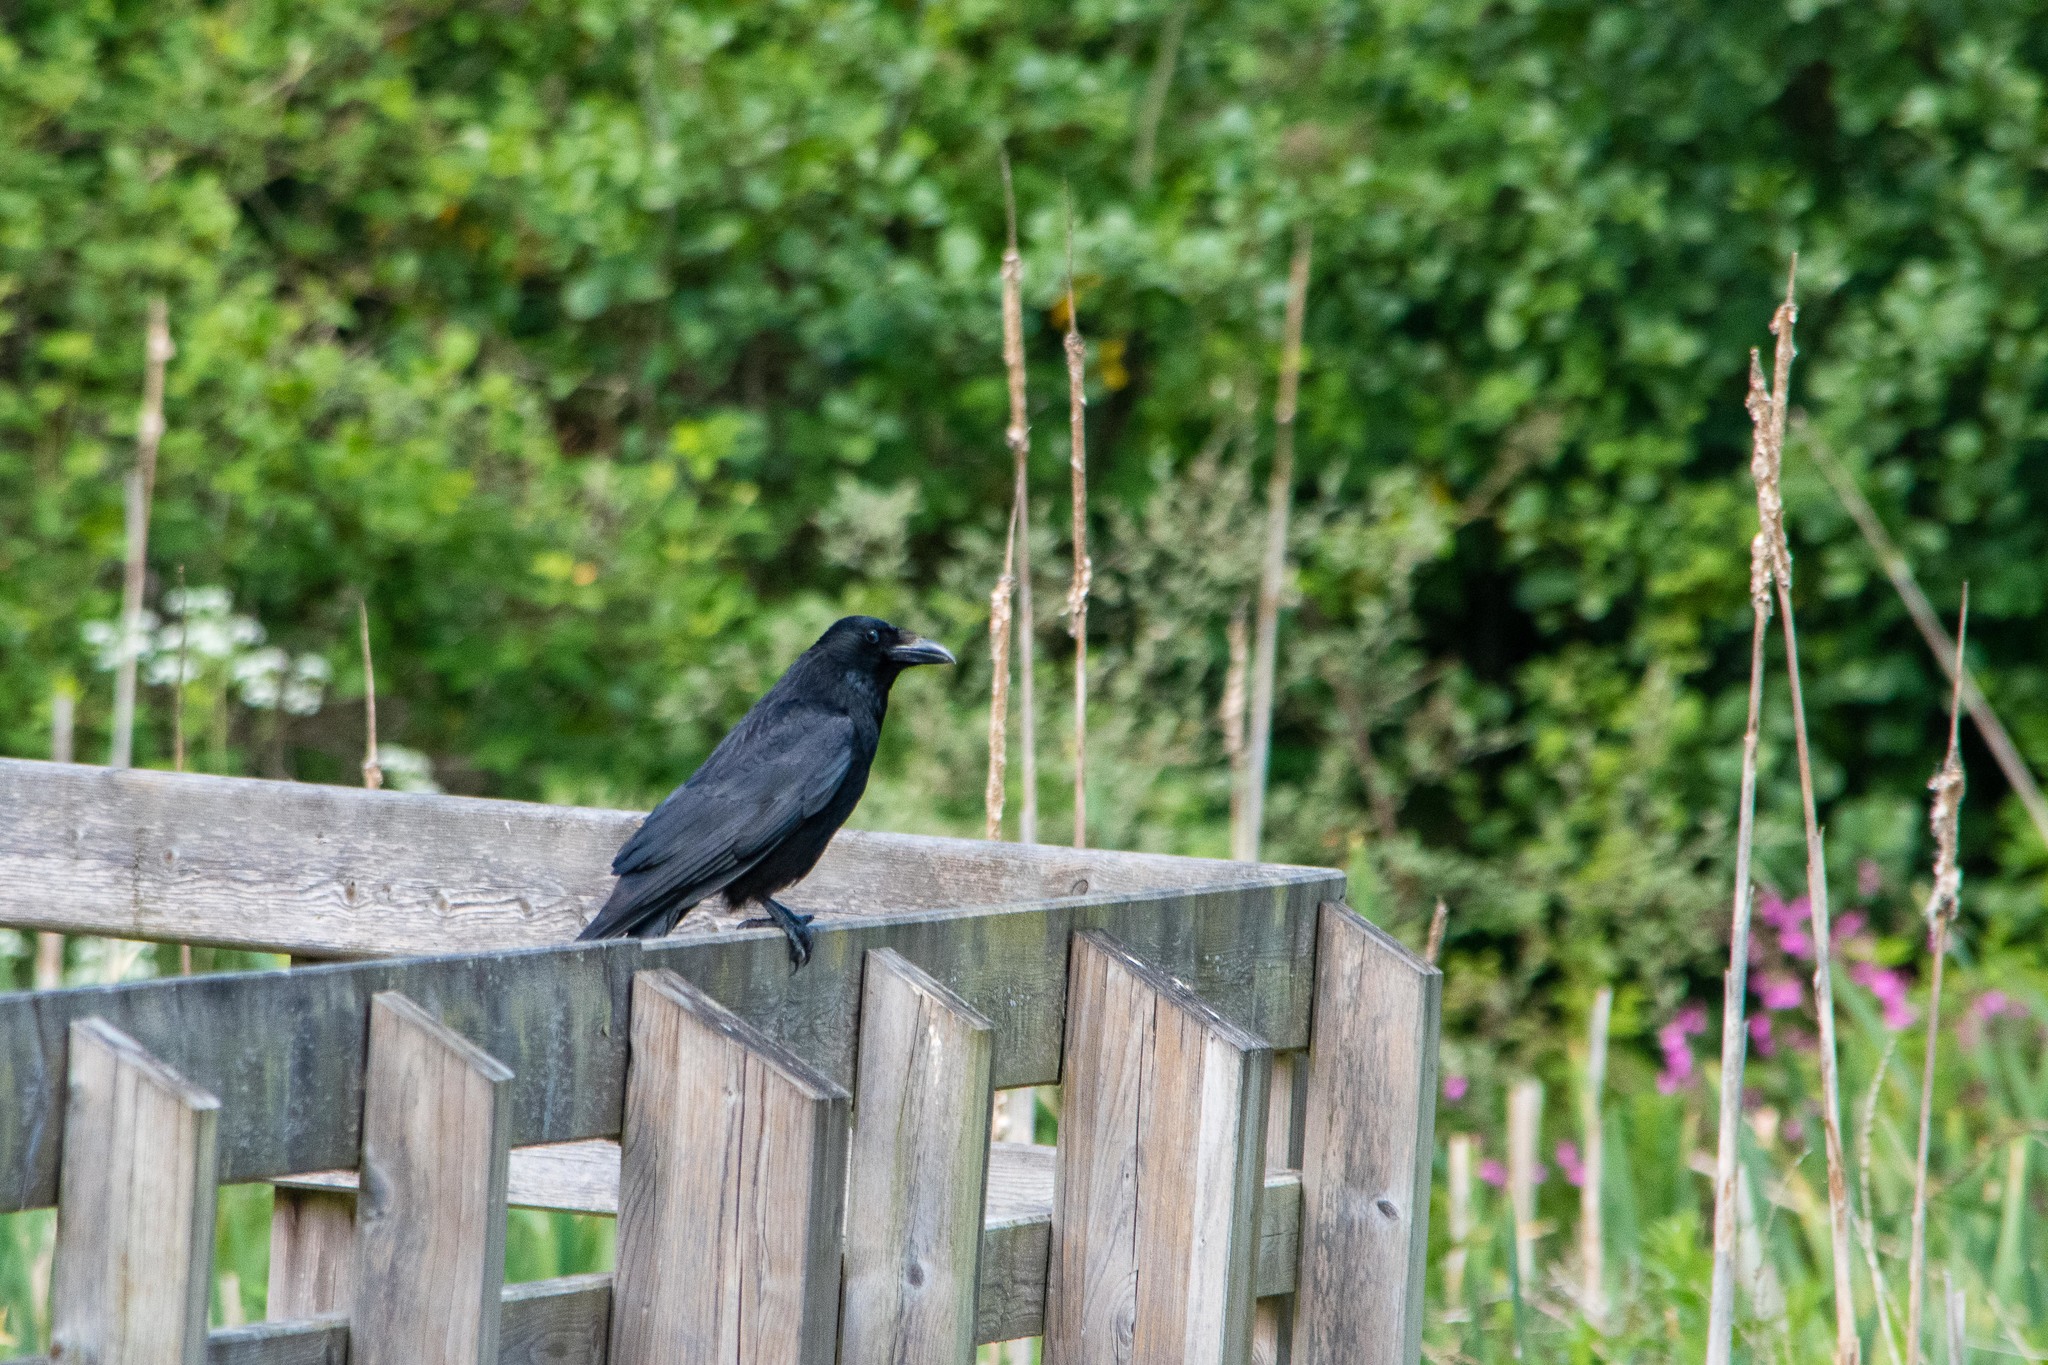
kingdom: Animalia
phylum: Chordata
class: Aves
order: Passeriformes
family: Corvidae
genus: Corvus
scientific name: Corvus corone
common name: Carrion crow
